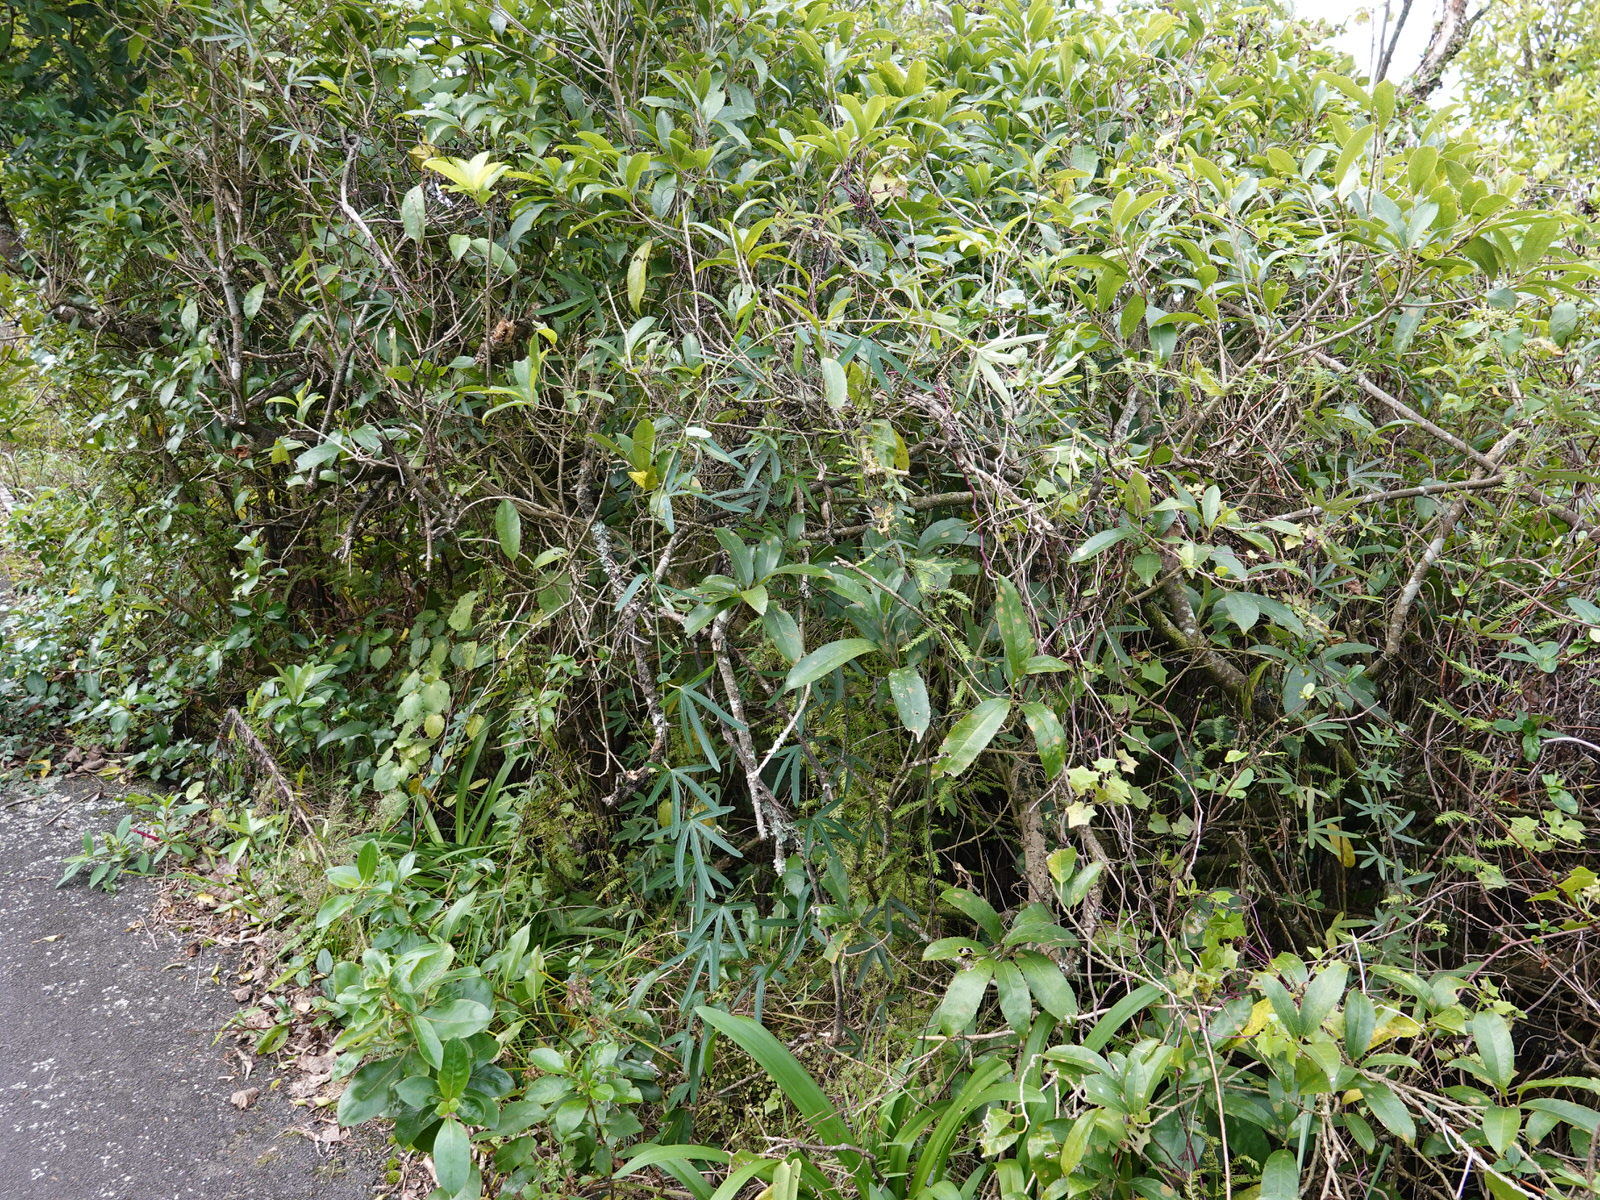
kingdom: Plantae
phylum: Tracheophyta
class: Magnoliopsida
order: Malpighiales
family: Passifloraceae
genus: Passiflora
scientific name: Passiflora caerulea
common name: Blue passionflower
